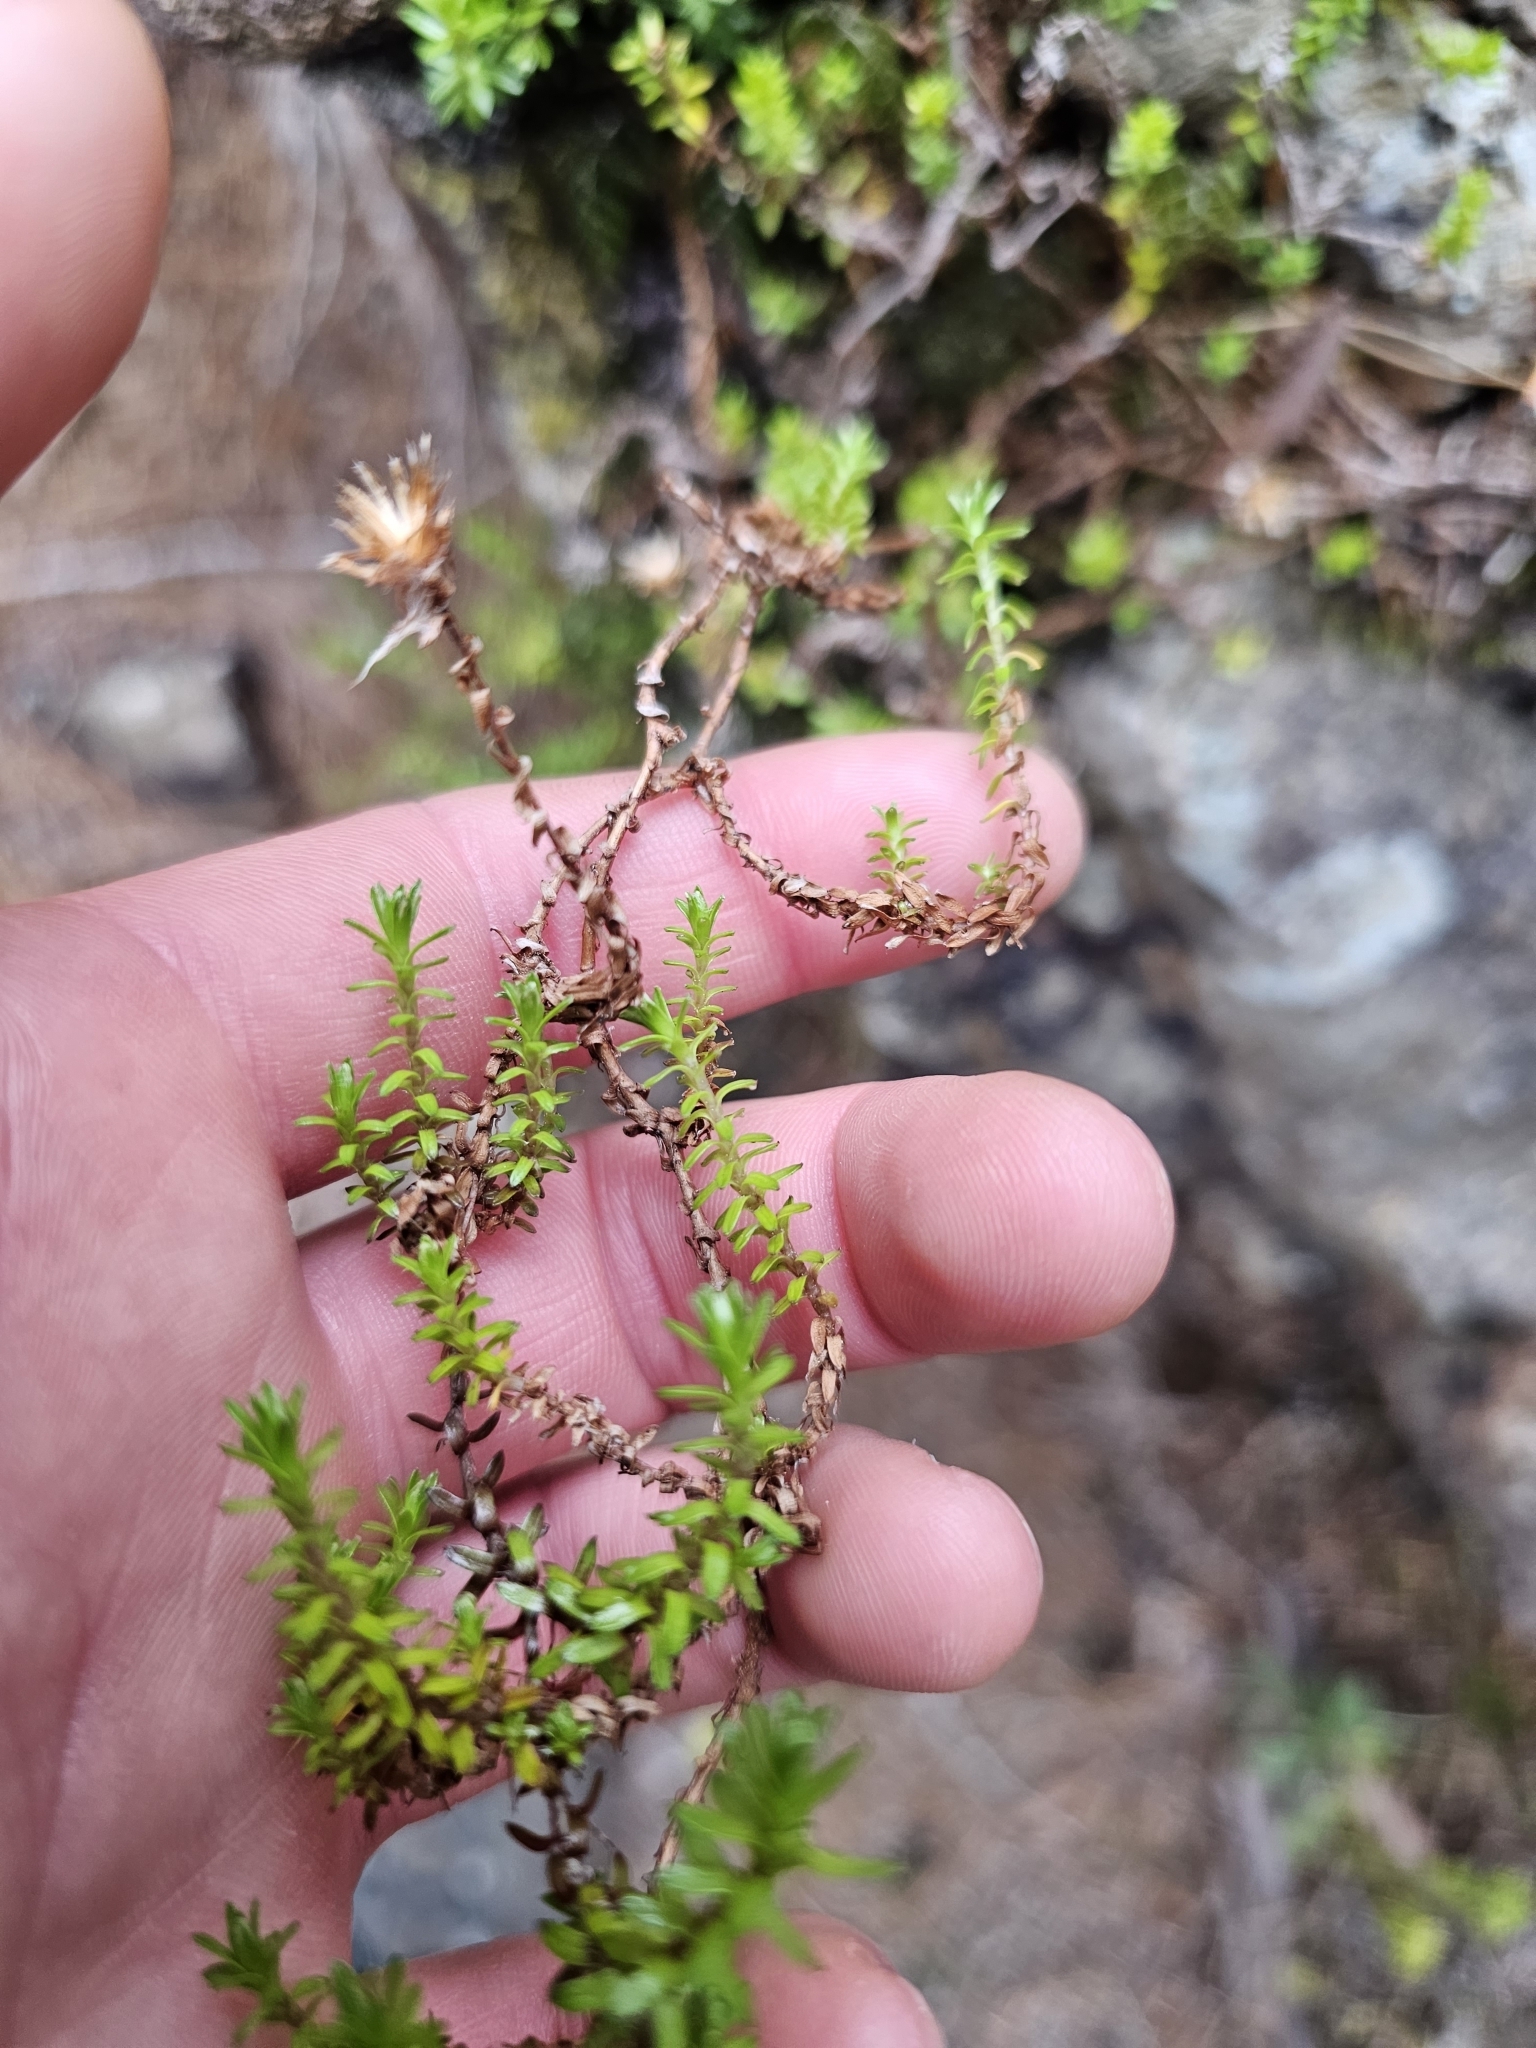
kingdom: Plantae
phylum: Tracheophyta
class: Magnoliopsida
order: Asterales
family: Asteraceae
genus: Raoulia
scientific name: Raoulia glabra
